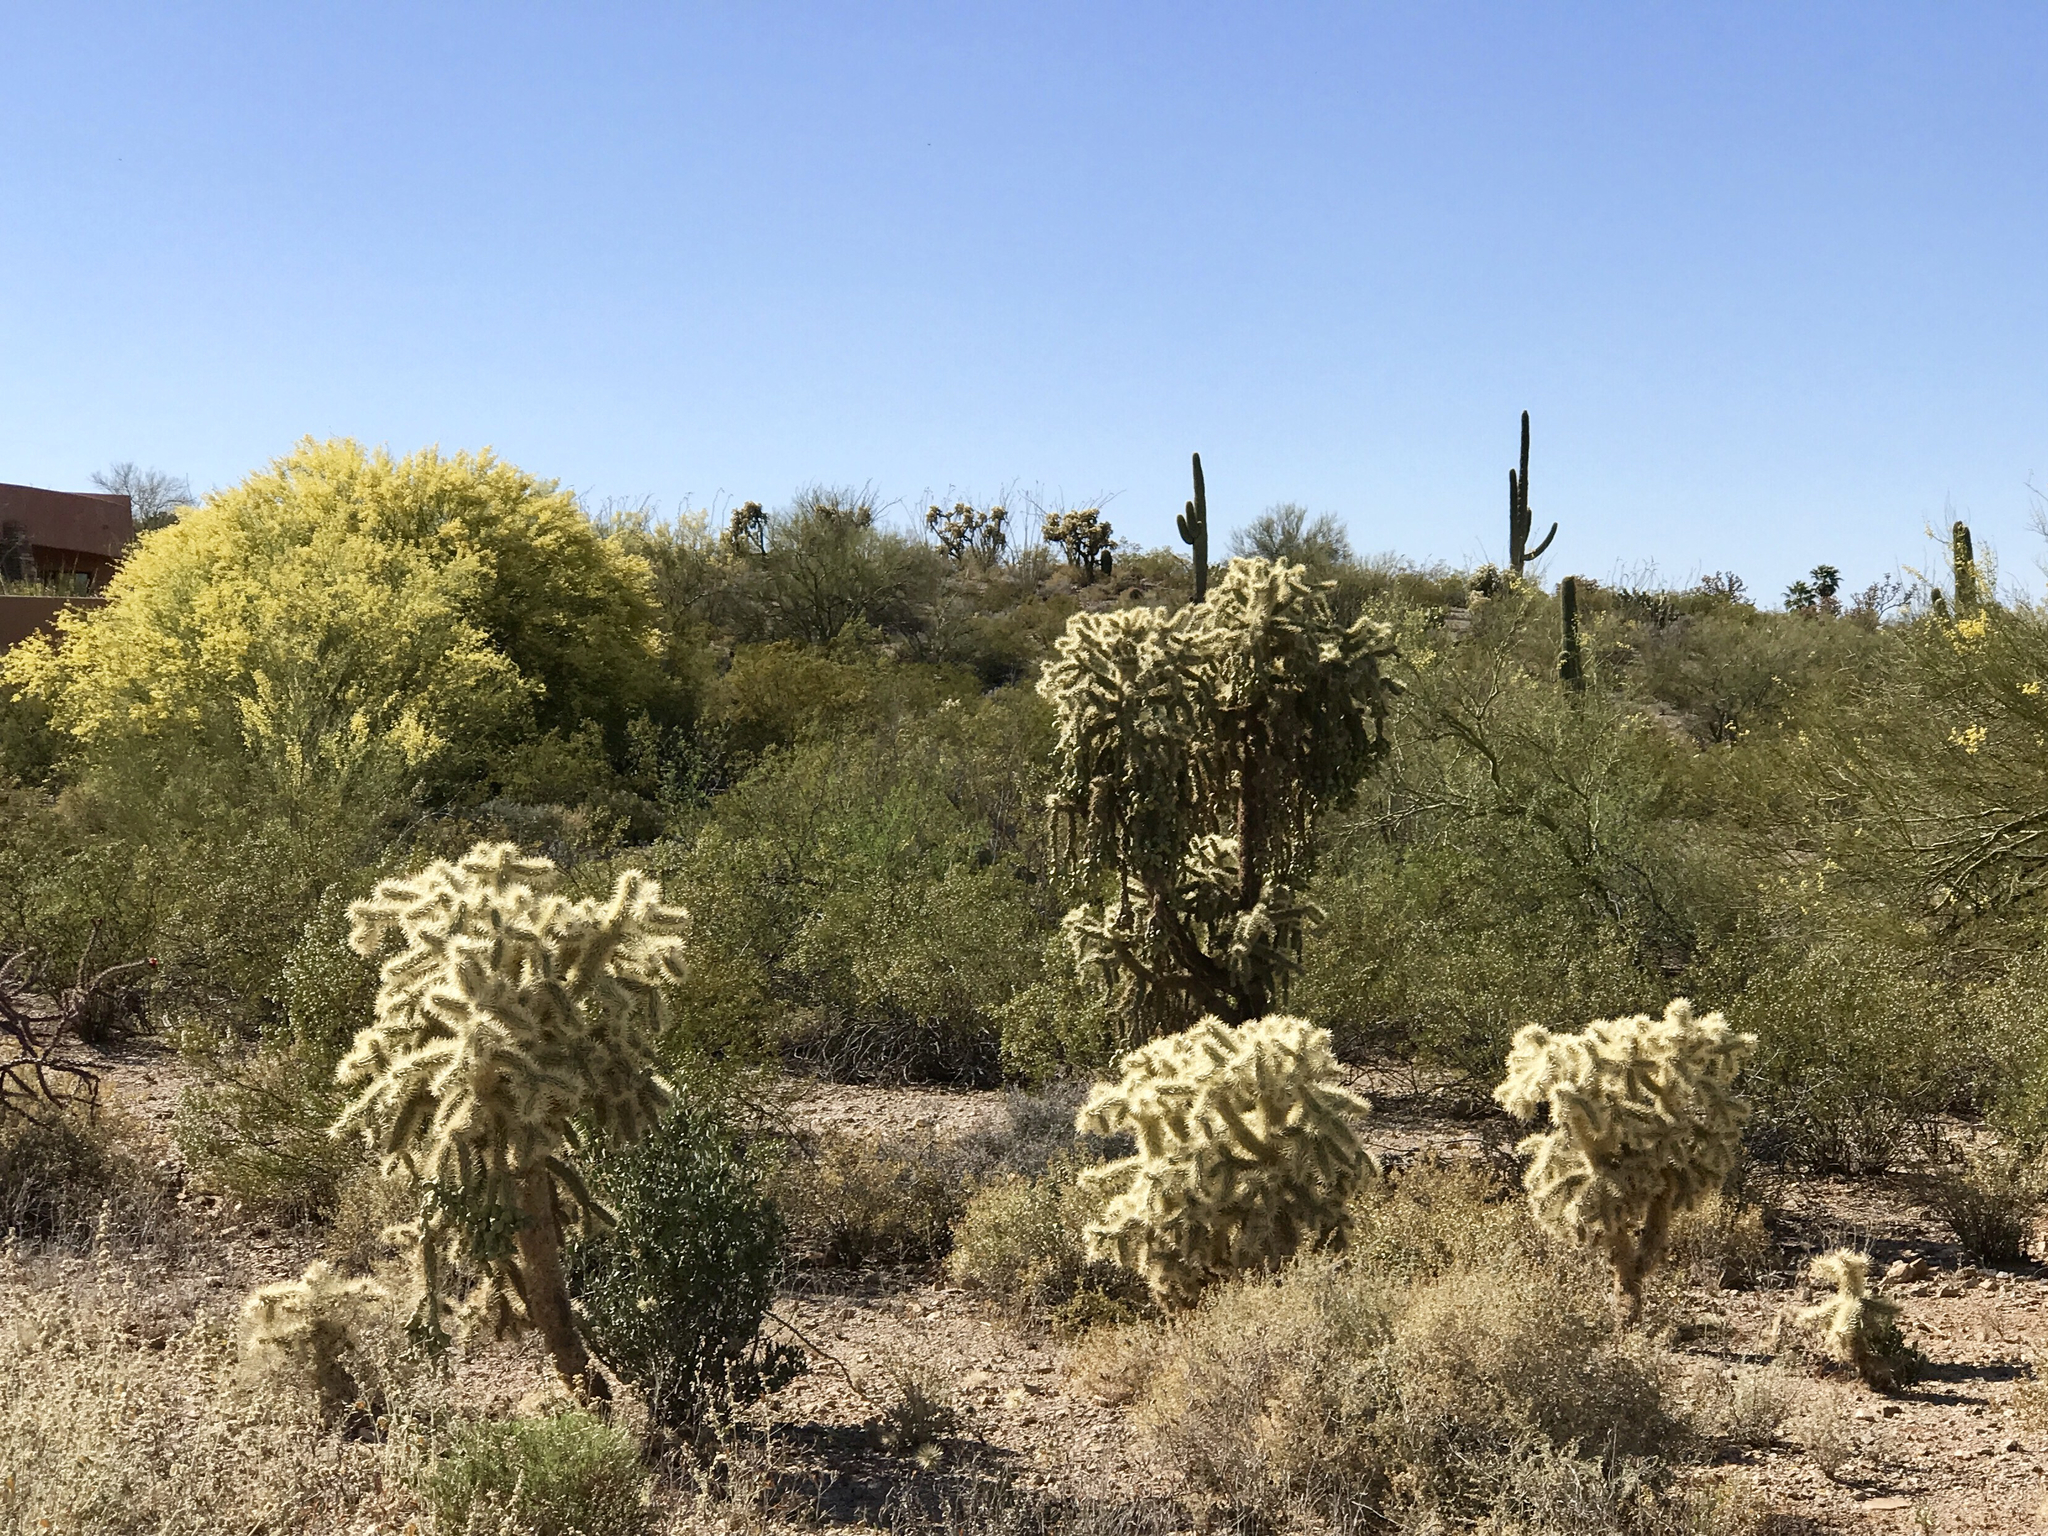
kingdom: Plantae
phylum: Tracheophyta
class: Magnoliopsida
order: Caryophyllales
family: Cactaceae
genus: Cylindropuntia
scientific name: Cylindropuntia fulgida
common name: Jumping cholla
